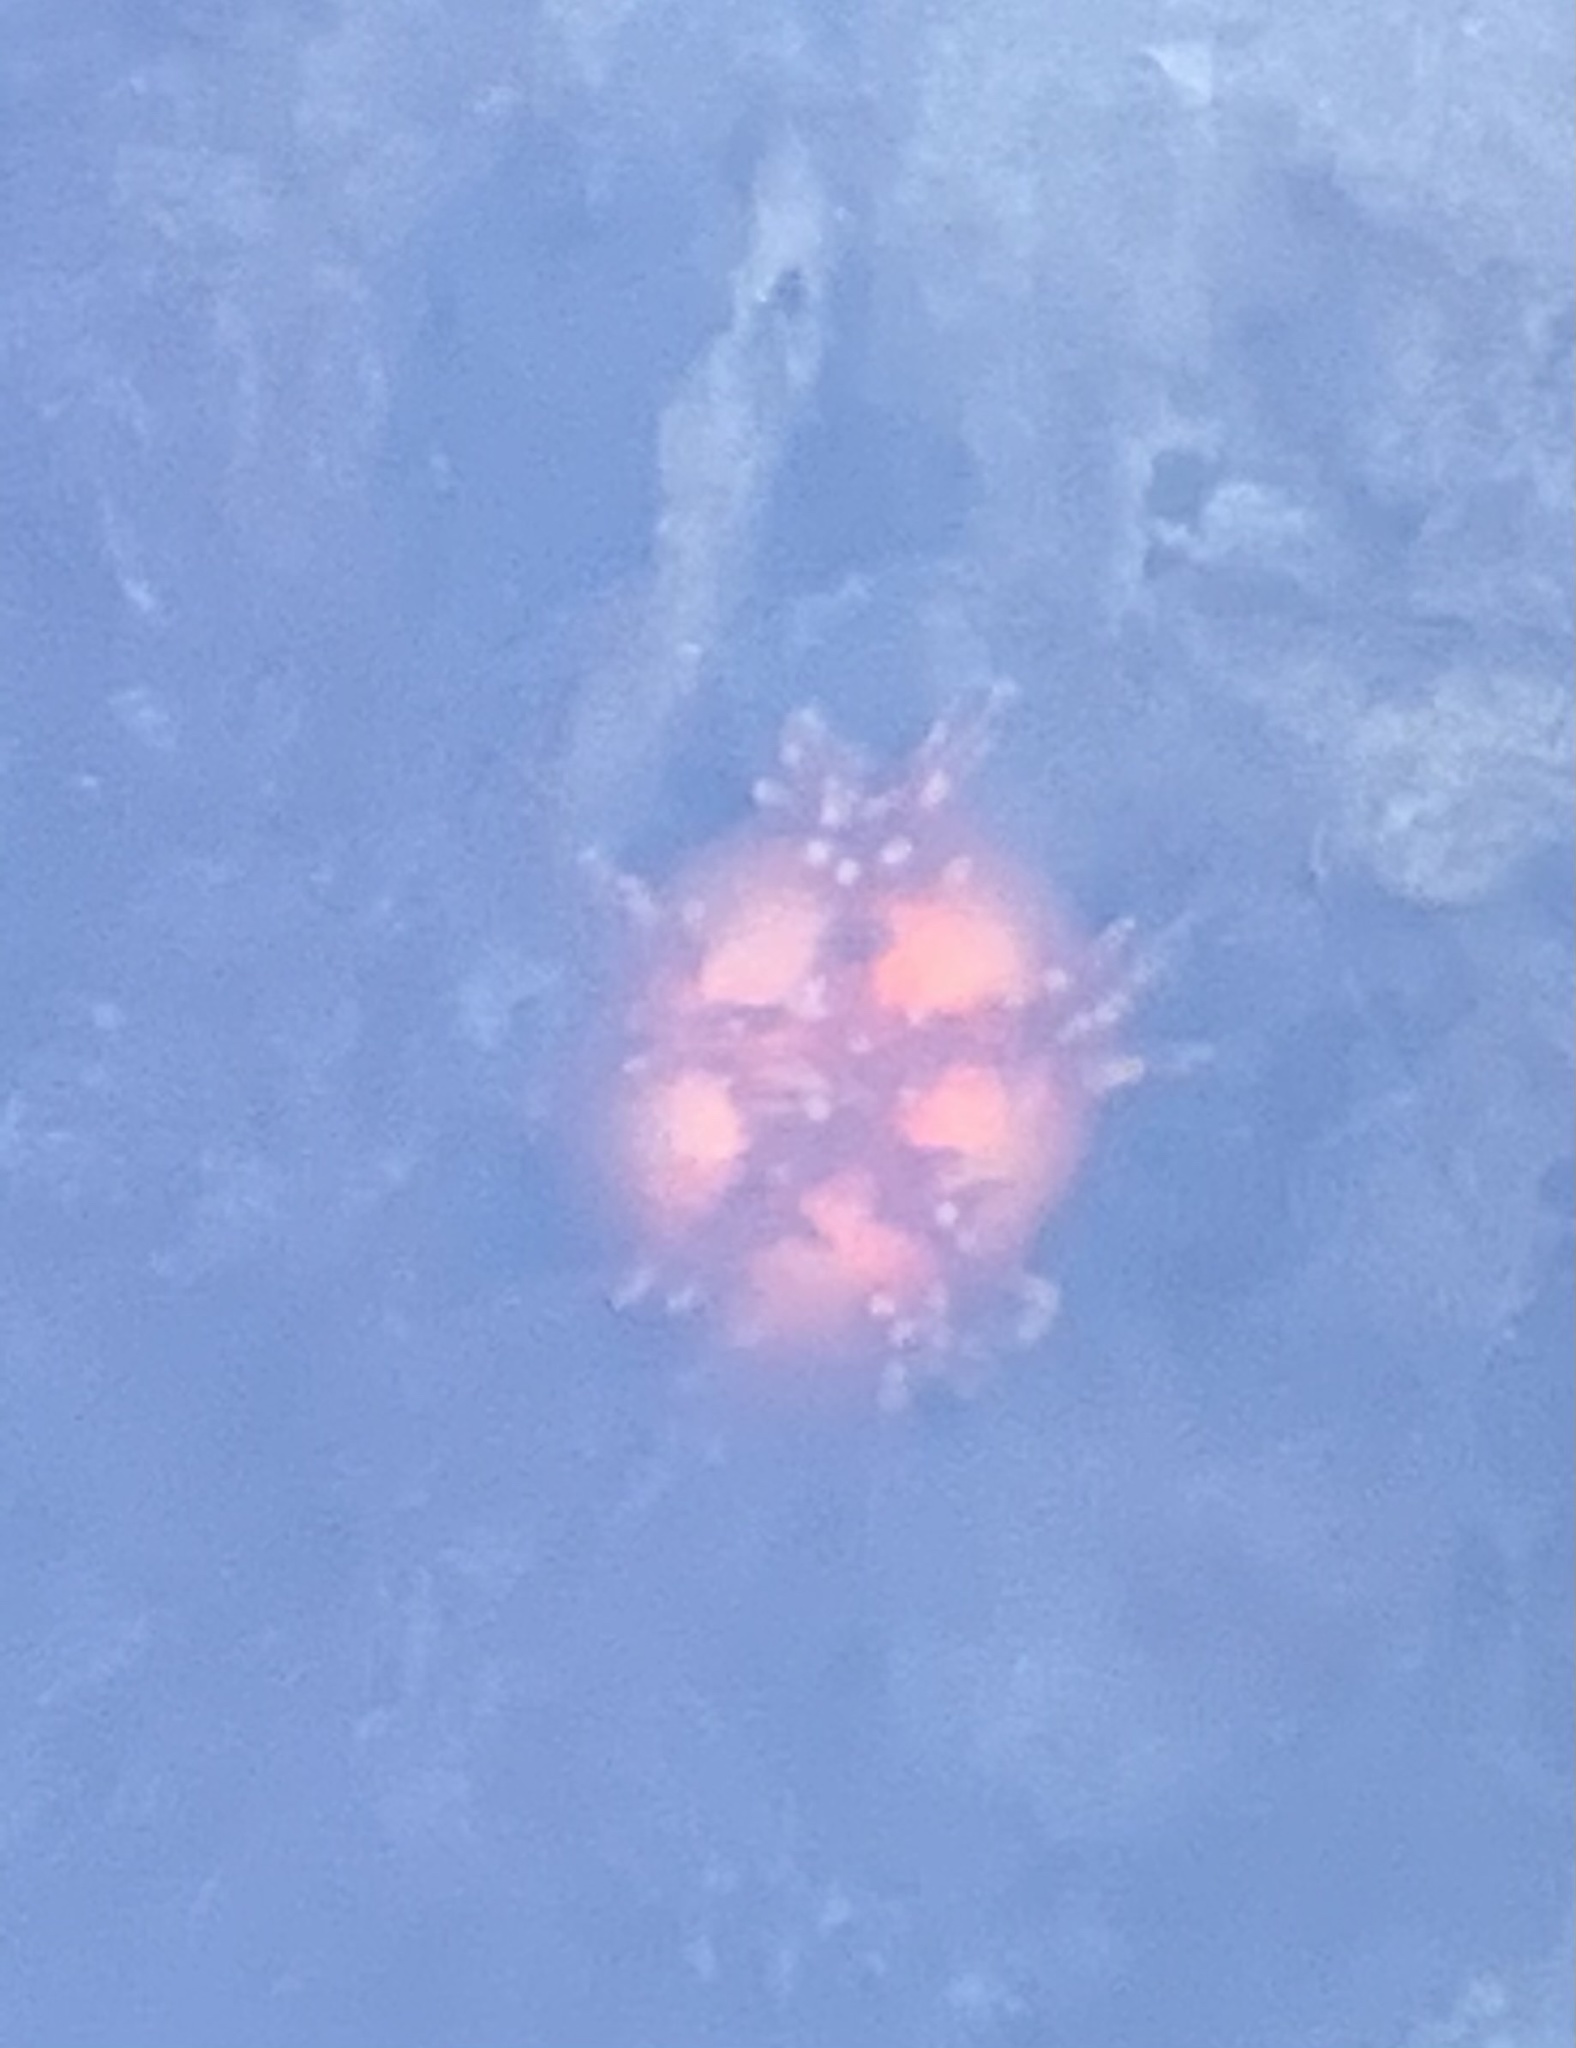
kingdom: Animalia
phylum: Echinodermata
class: Holothuroidea
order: Dendrochirotida
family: Cucumariidae
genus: Cucumaria
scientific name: Cucumaria miniata
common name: Orange sea cucumber
